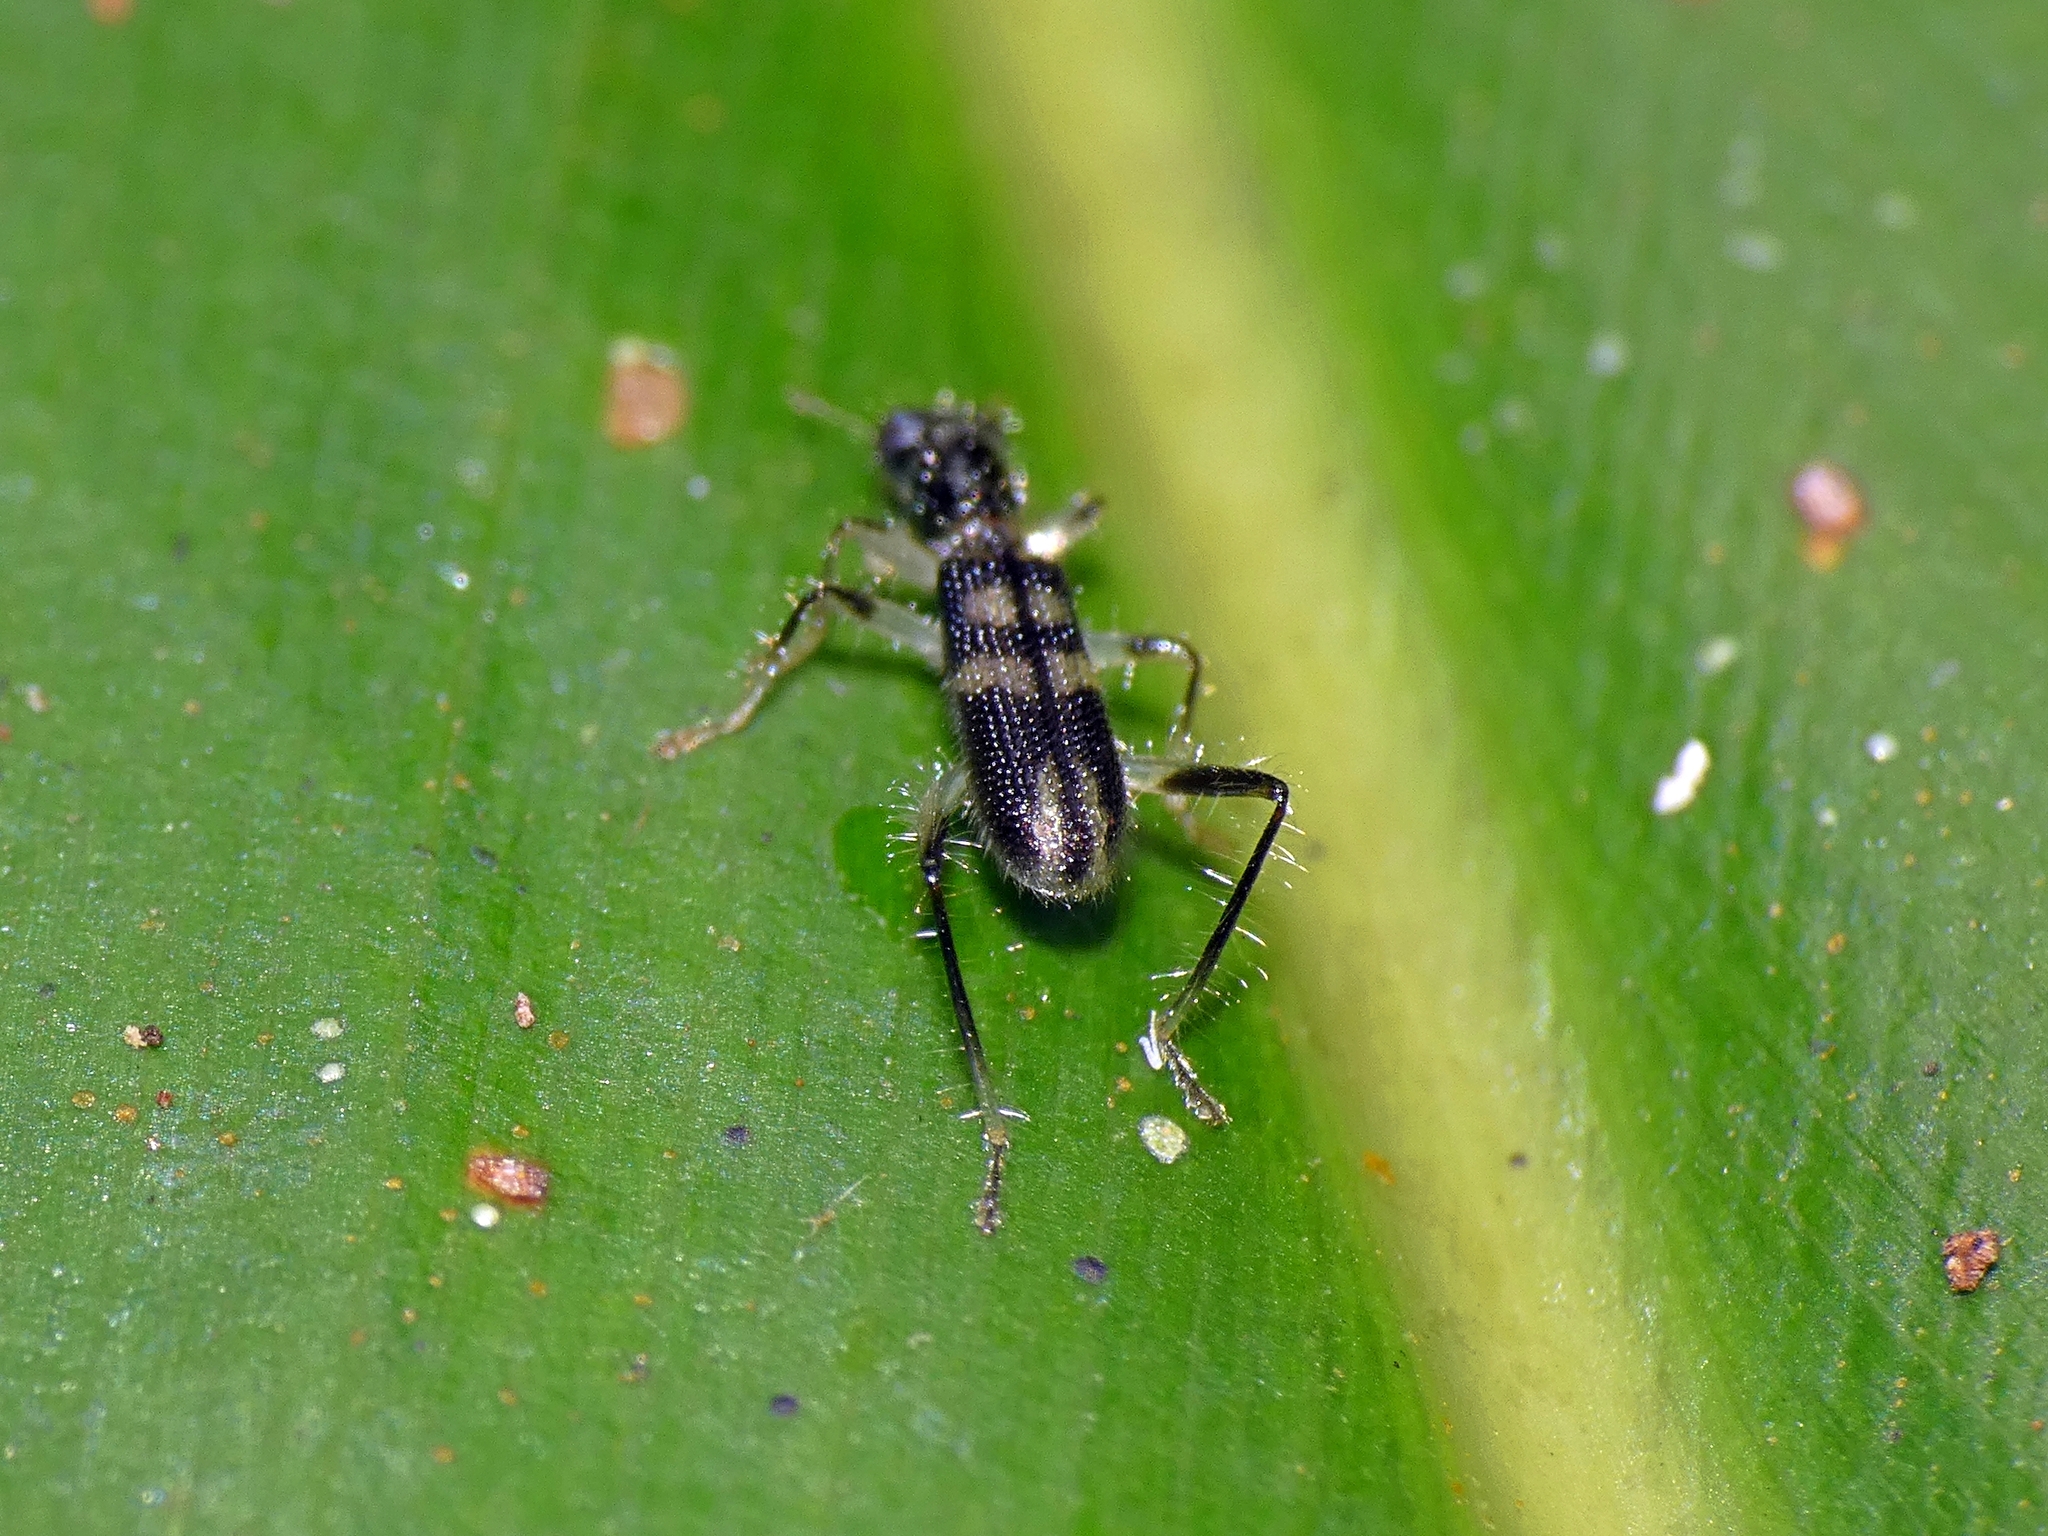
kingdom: Animalia
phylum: Arthropoda
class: Insecta
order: Coleoptera
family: Cleridae
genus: Lemidia
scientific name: Lemidia
